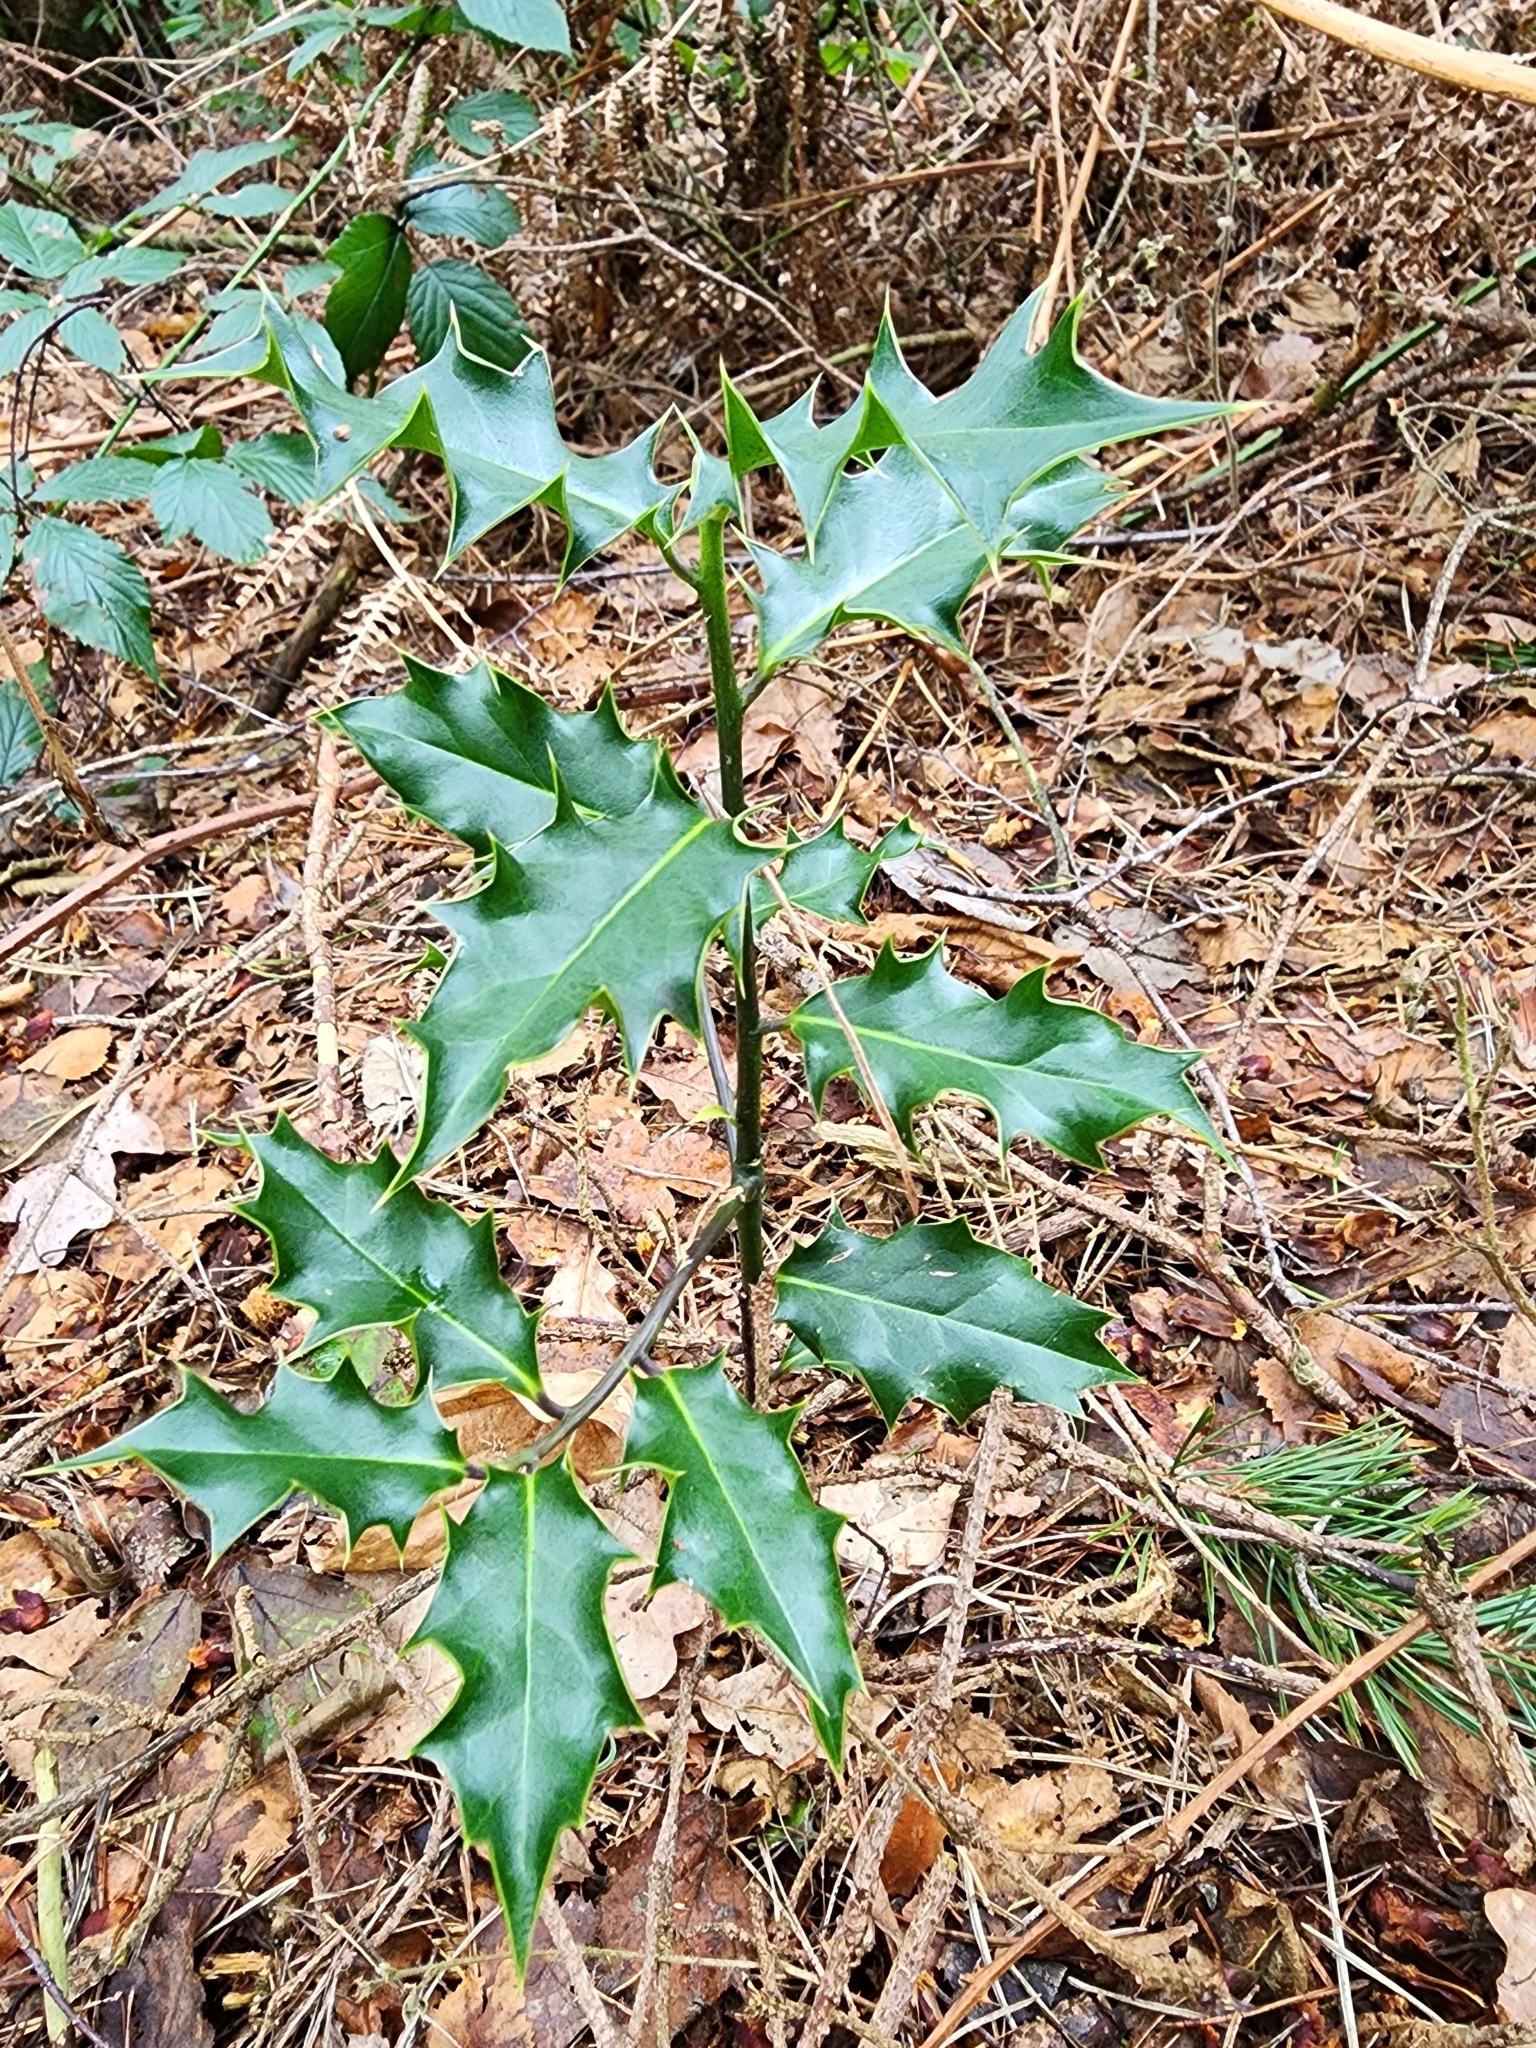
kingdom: Plantae
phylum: Tracheophyta
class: Magnoliopsida
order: Aquifoliales
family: Aquifoliaceae
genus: Ilex
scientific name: Ilex aquifolium
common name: English holly
